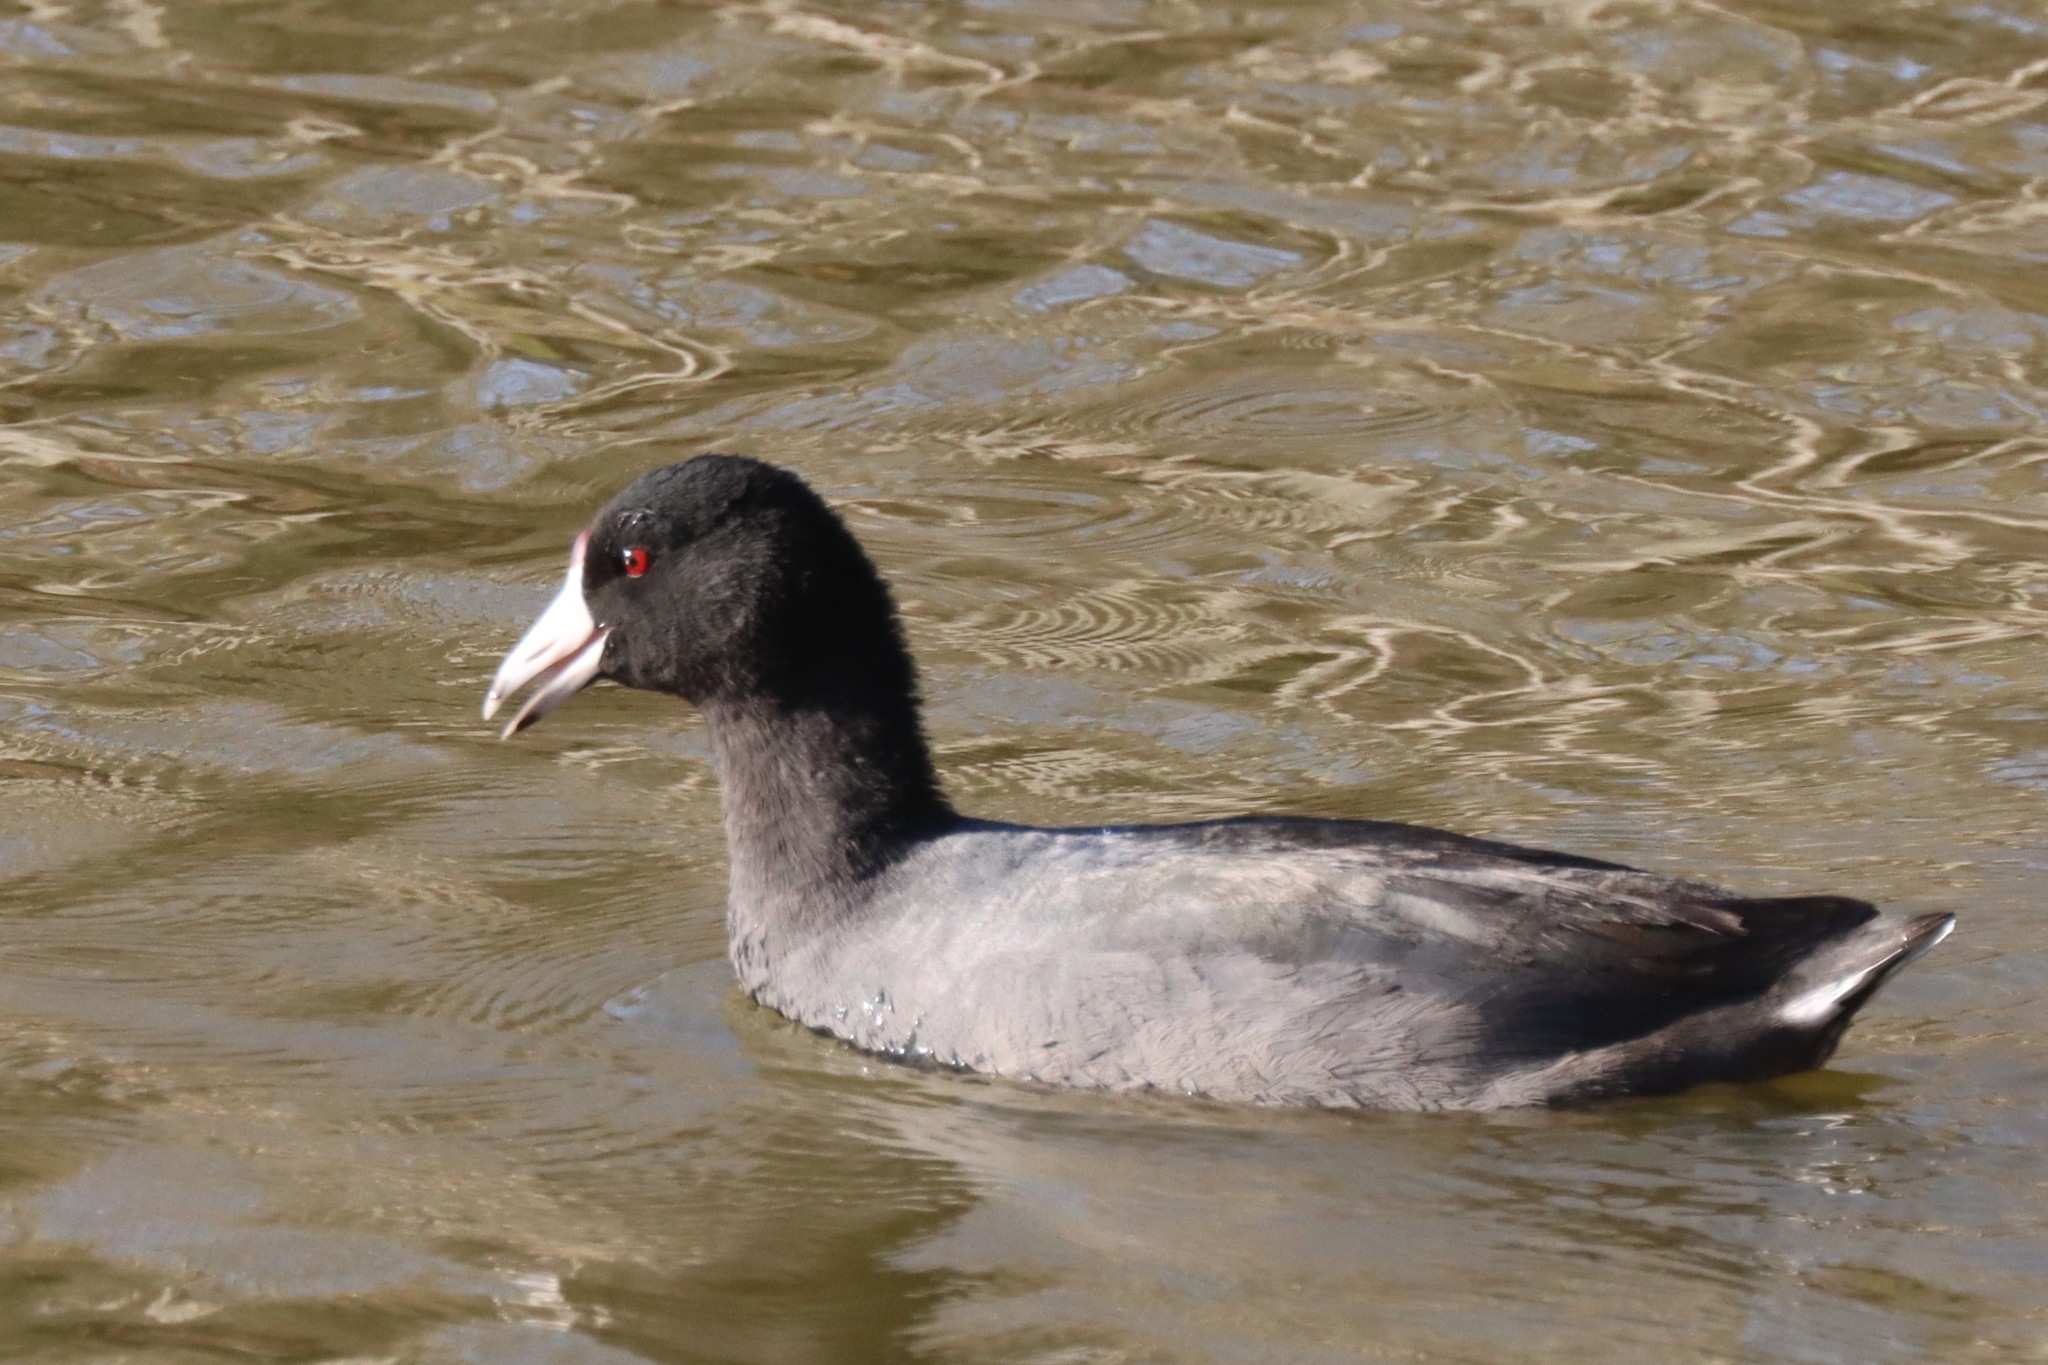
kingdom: Animalia
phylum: Chordata
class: Aves
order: Gruiformes
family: Rallidae
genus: Fulica
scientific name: Fulica americana
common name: American coot
